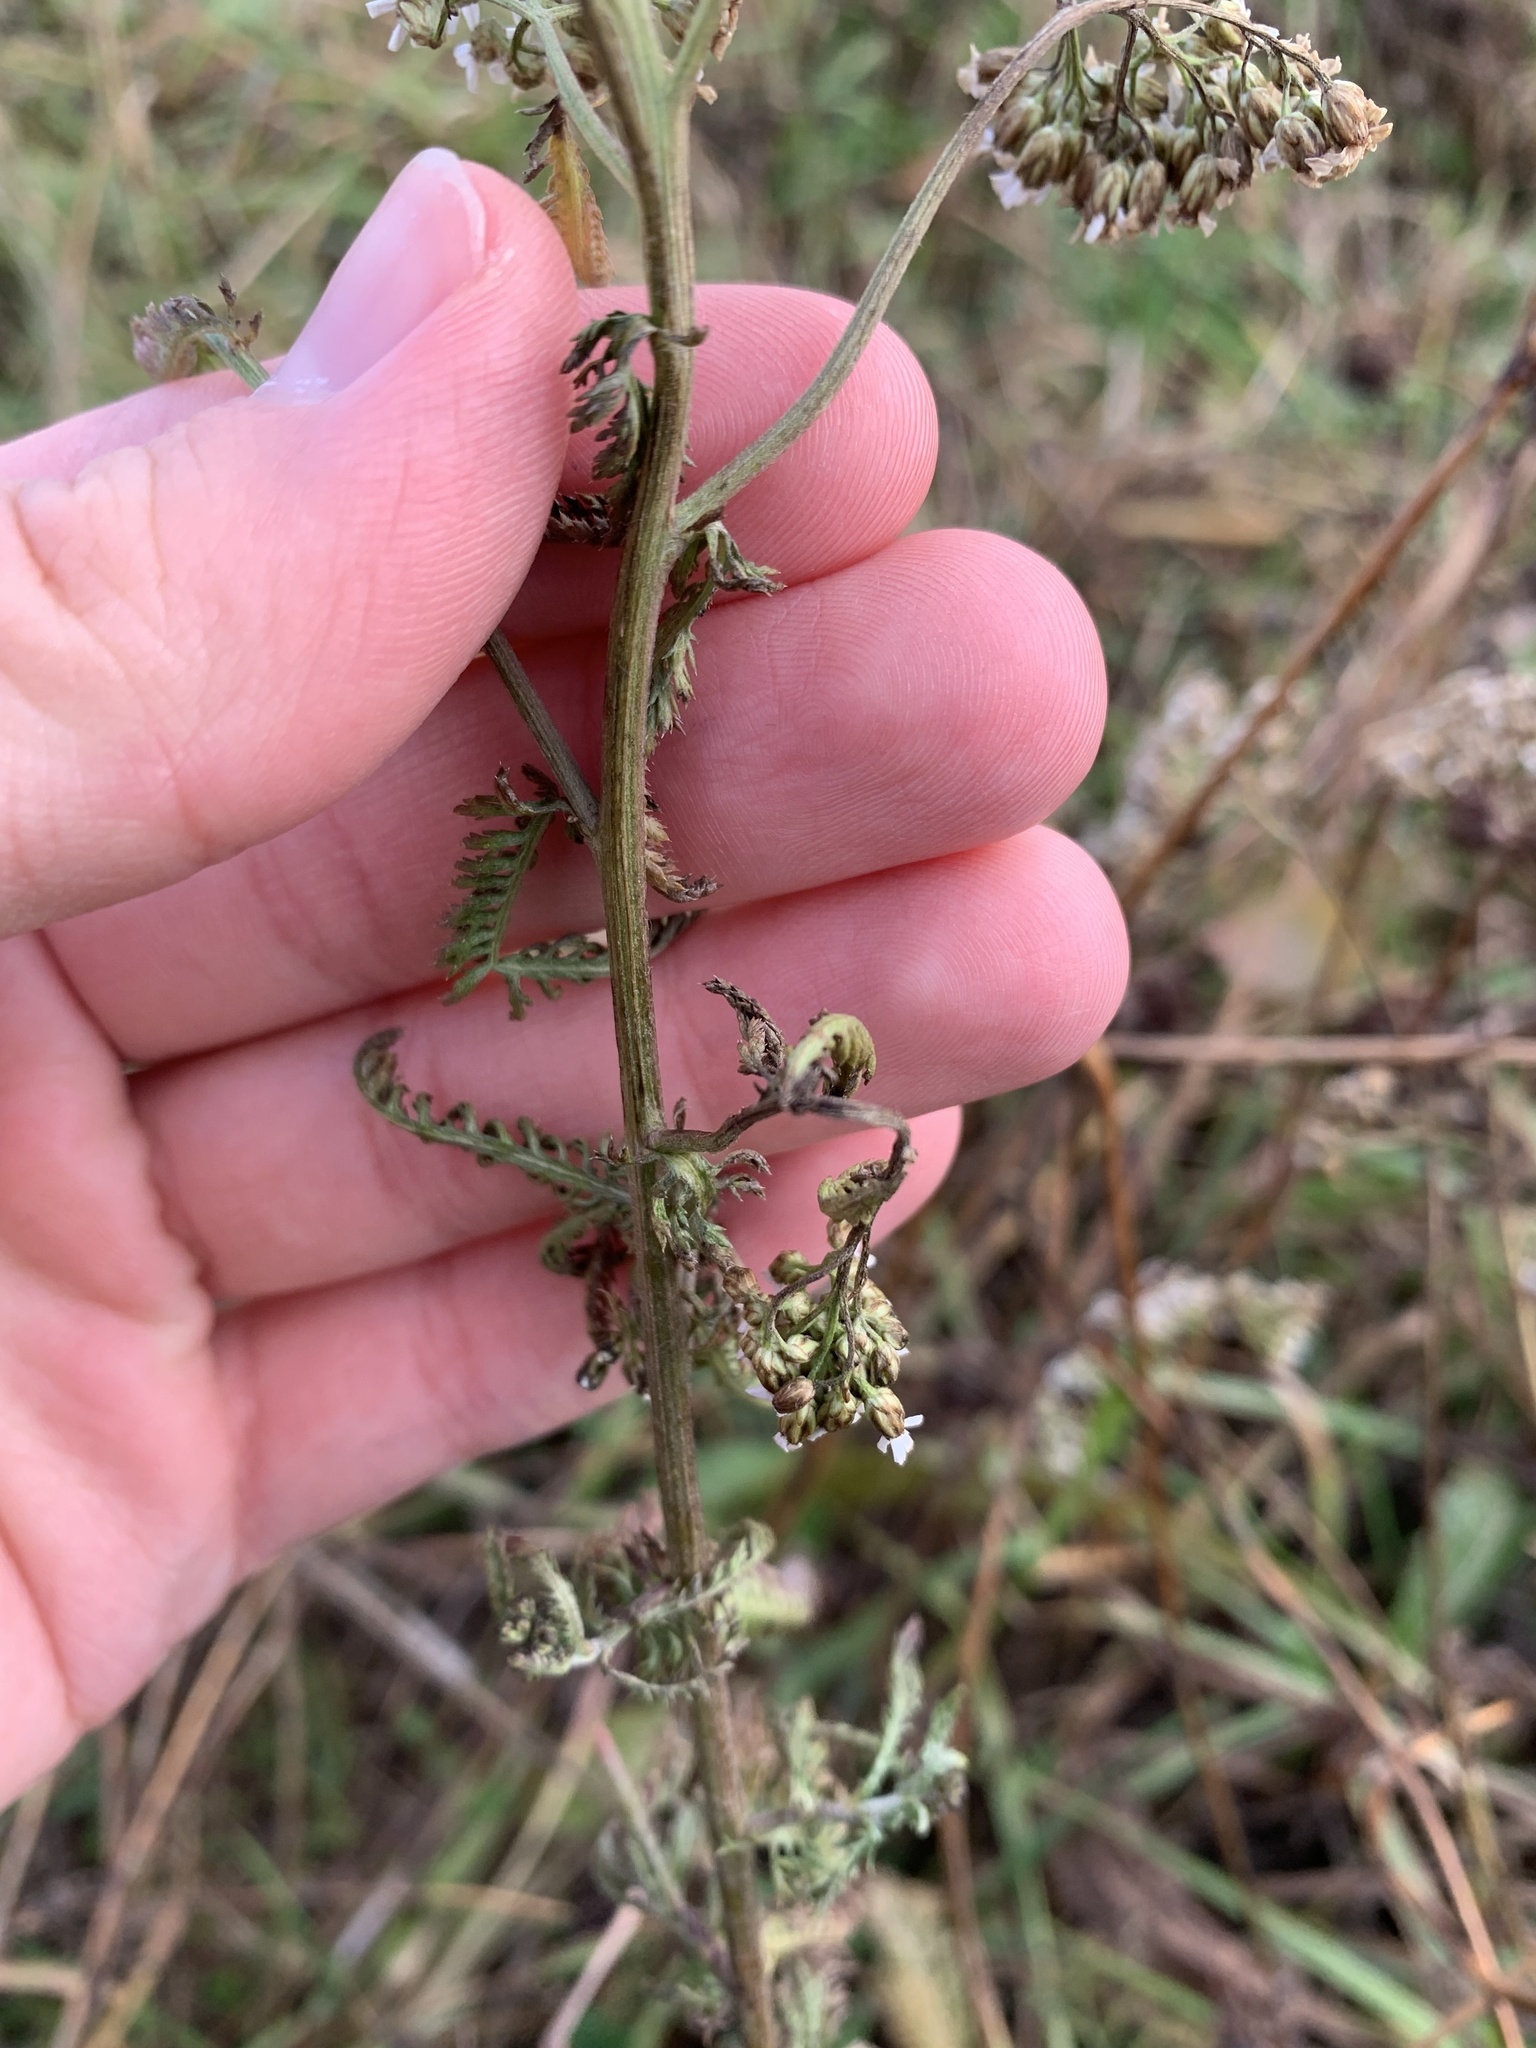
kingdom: Plantae
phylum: Tracheophyta
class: Magnoliopsida
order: Asterales
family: Asteraceae
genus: Achillea
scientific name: Achillea millefolium
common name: Yarrow
